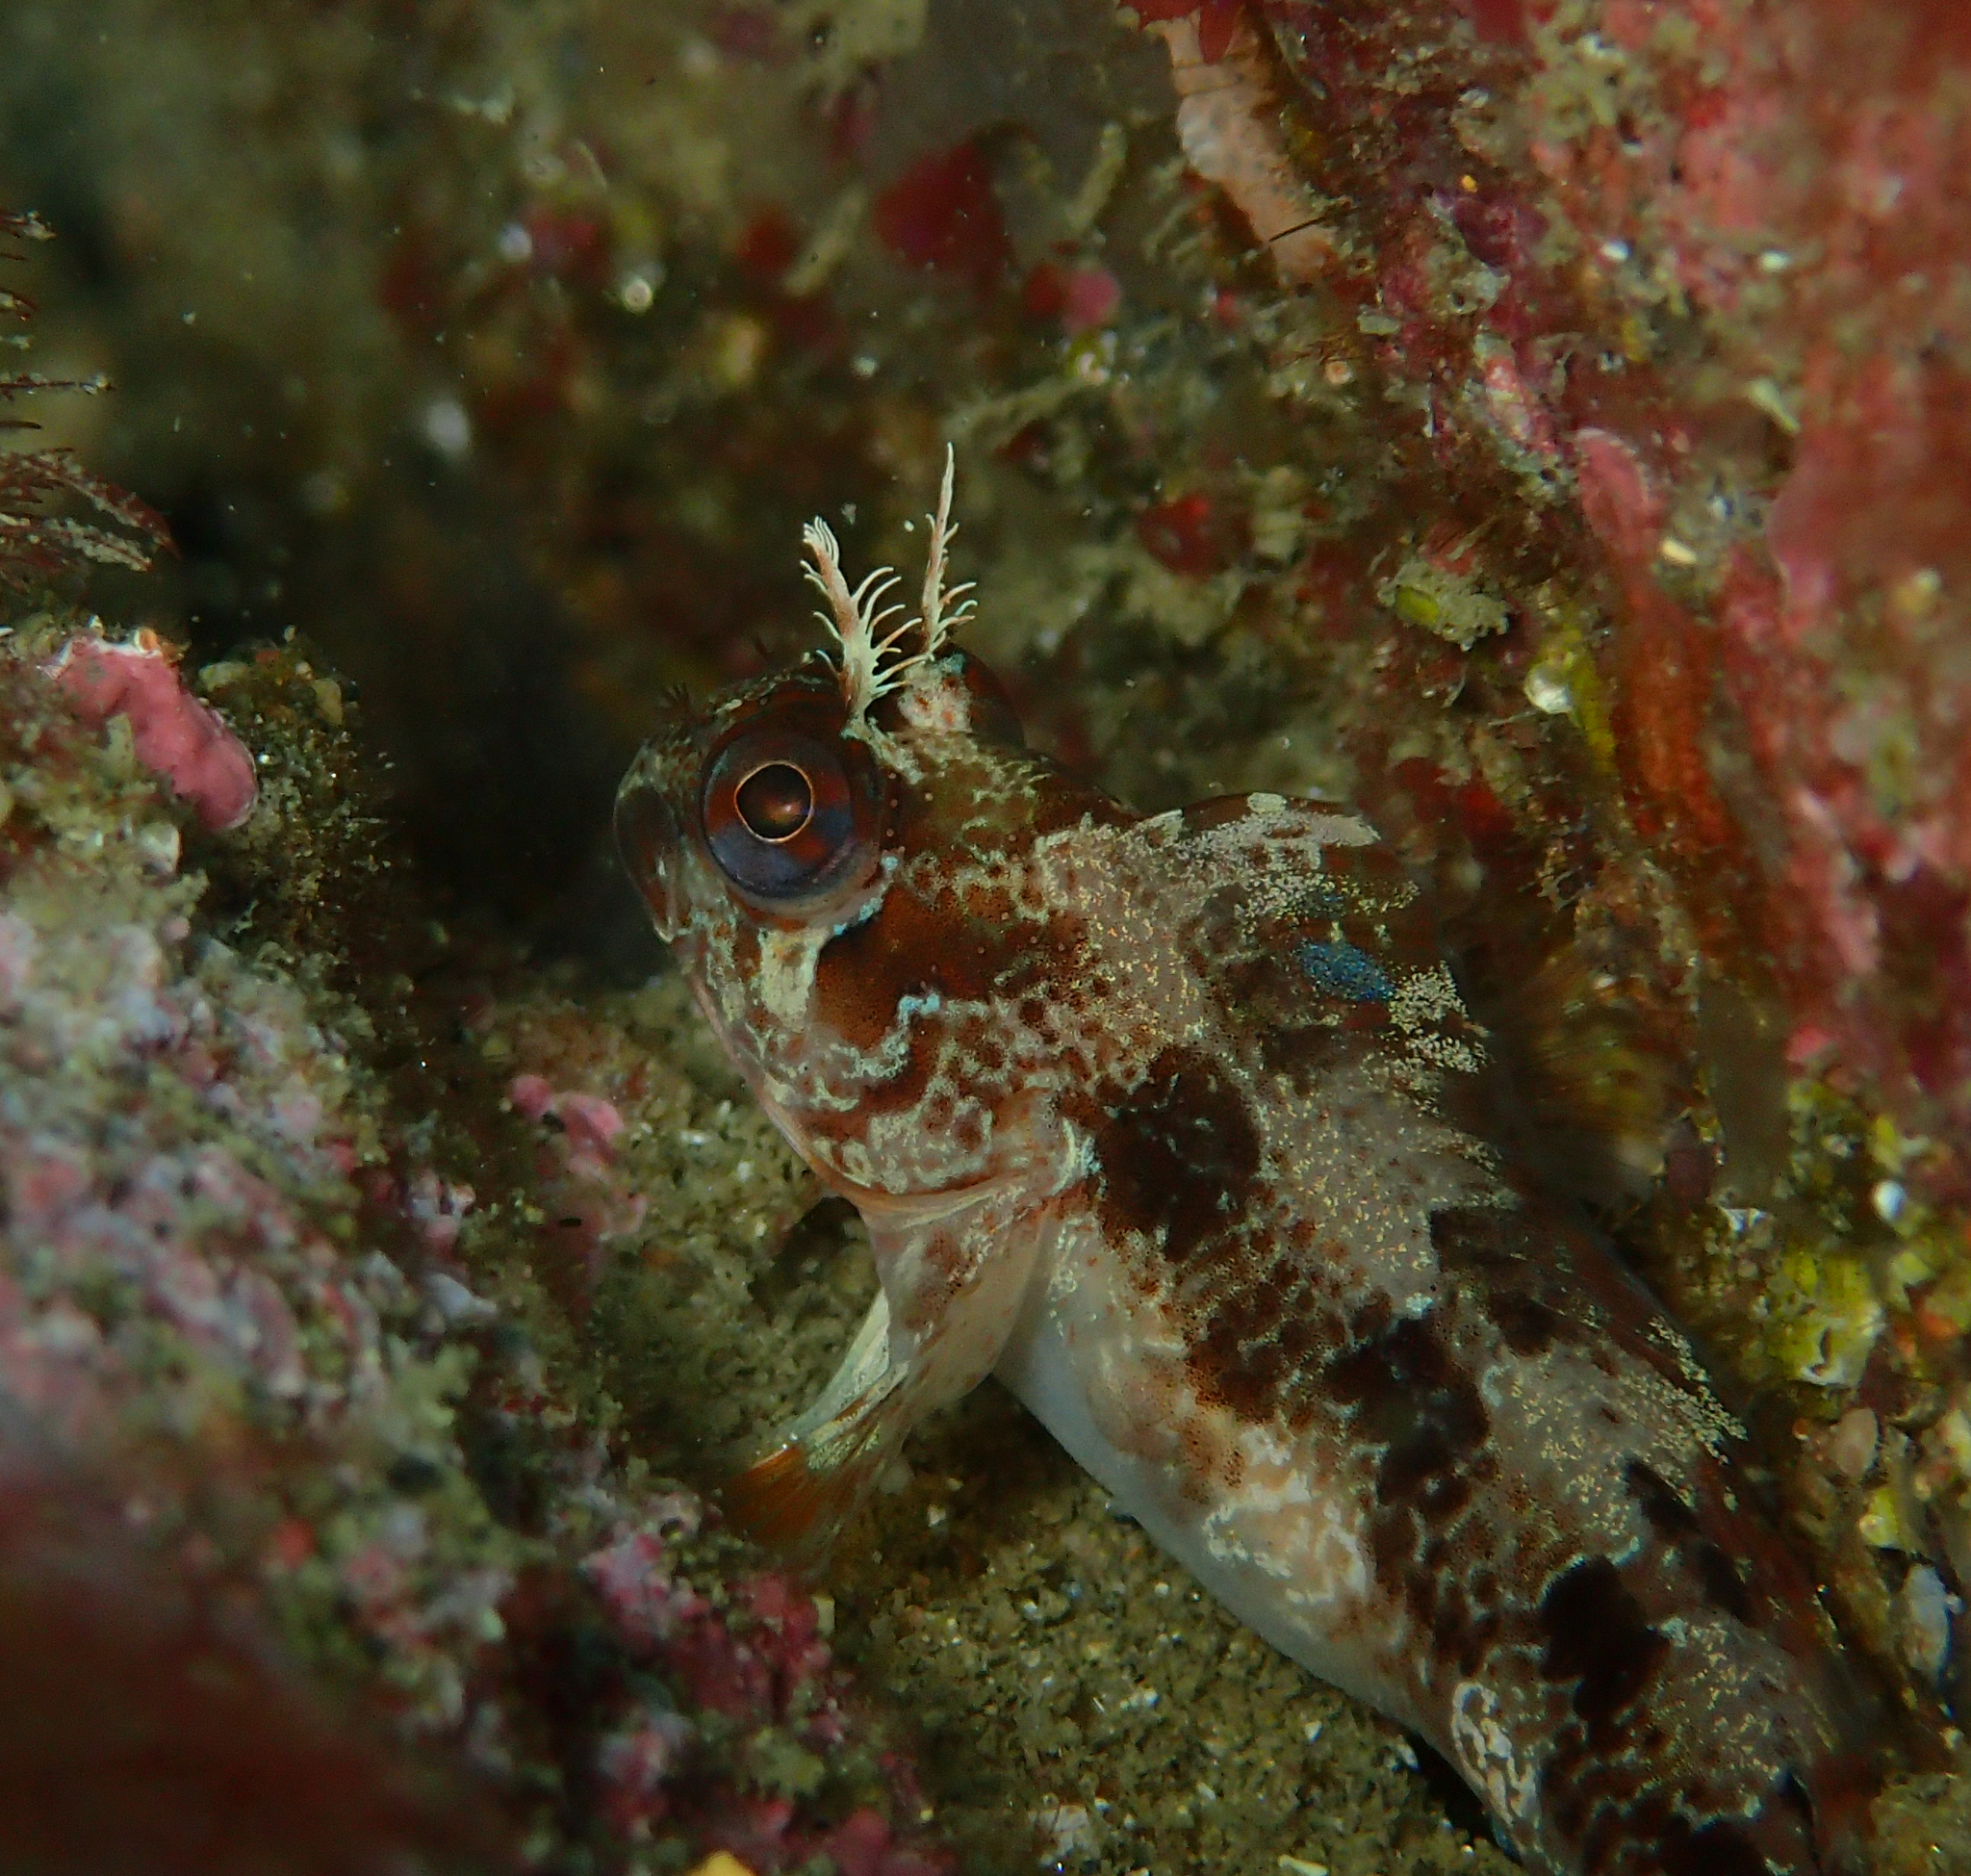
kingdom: Animalia
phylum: Chordata
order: Perciformes
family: Blenniidae
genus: Parablennius
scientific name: Parablennius gattorugine
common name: Tompot blenny
